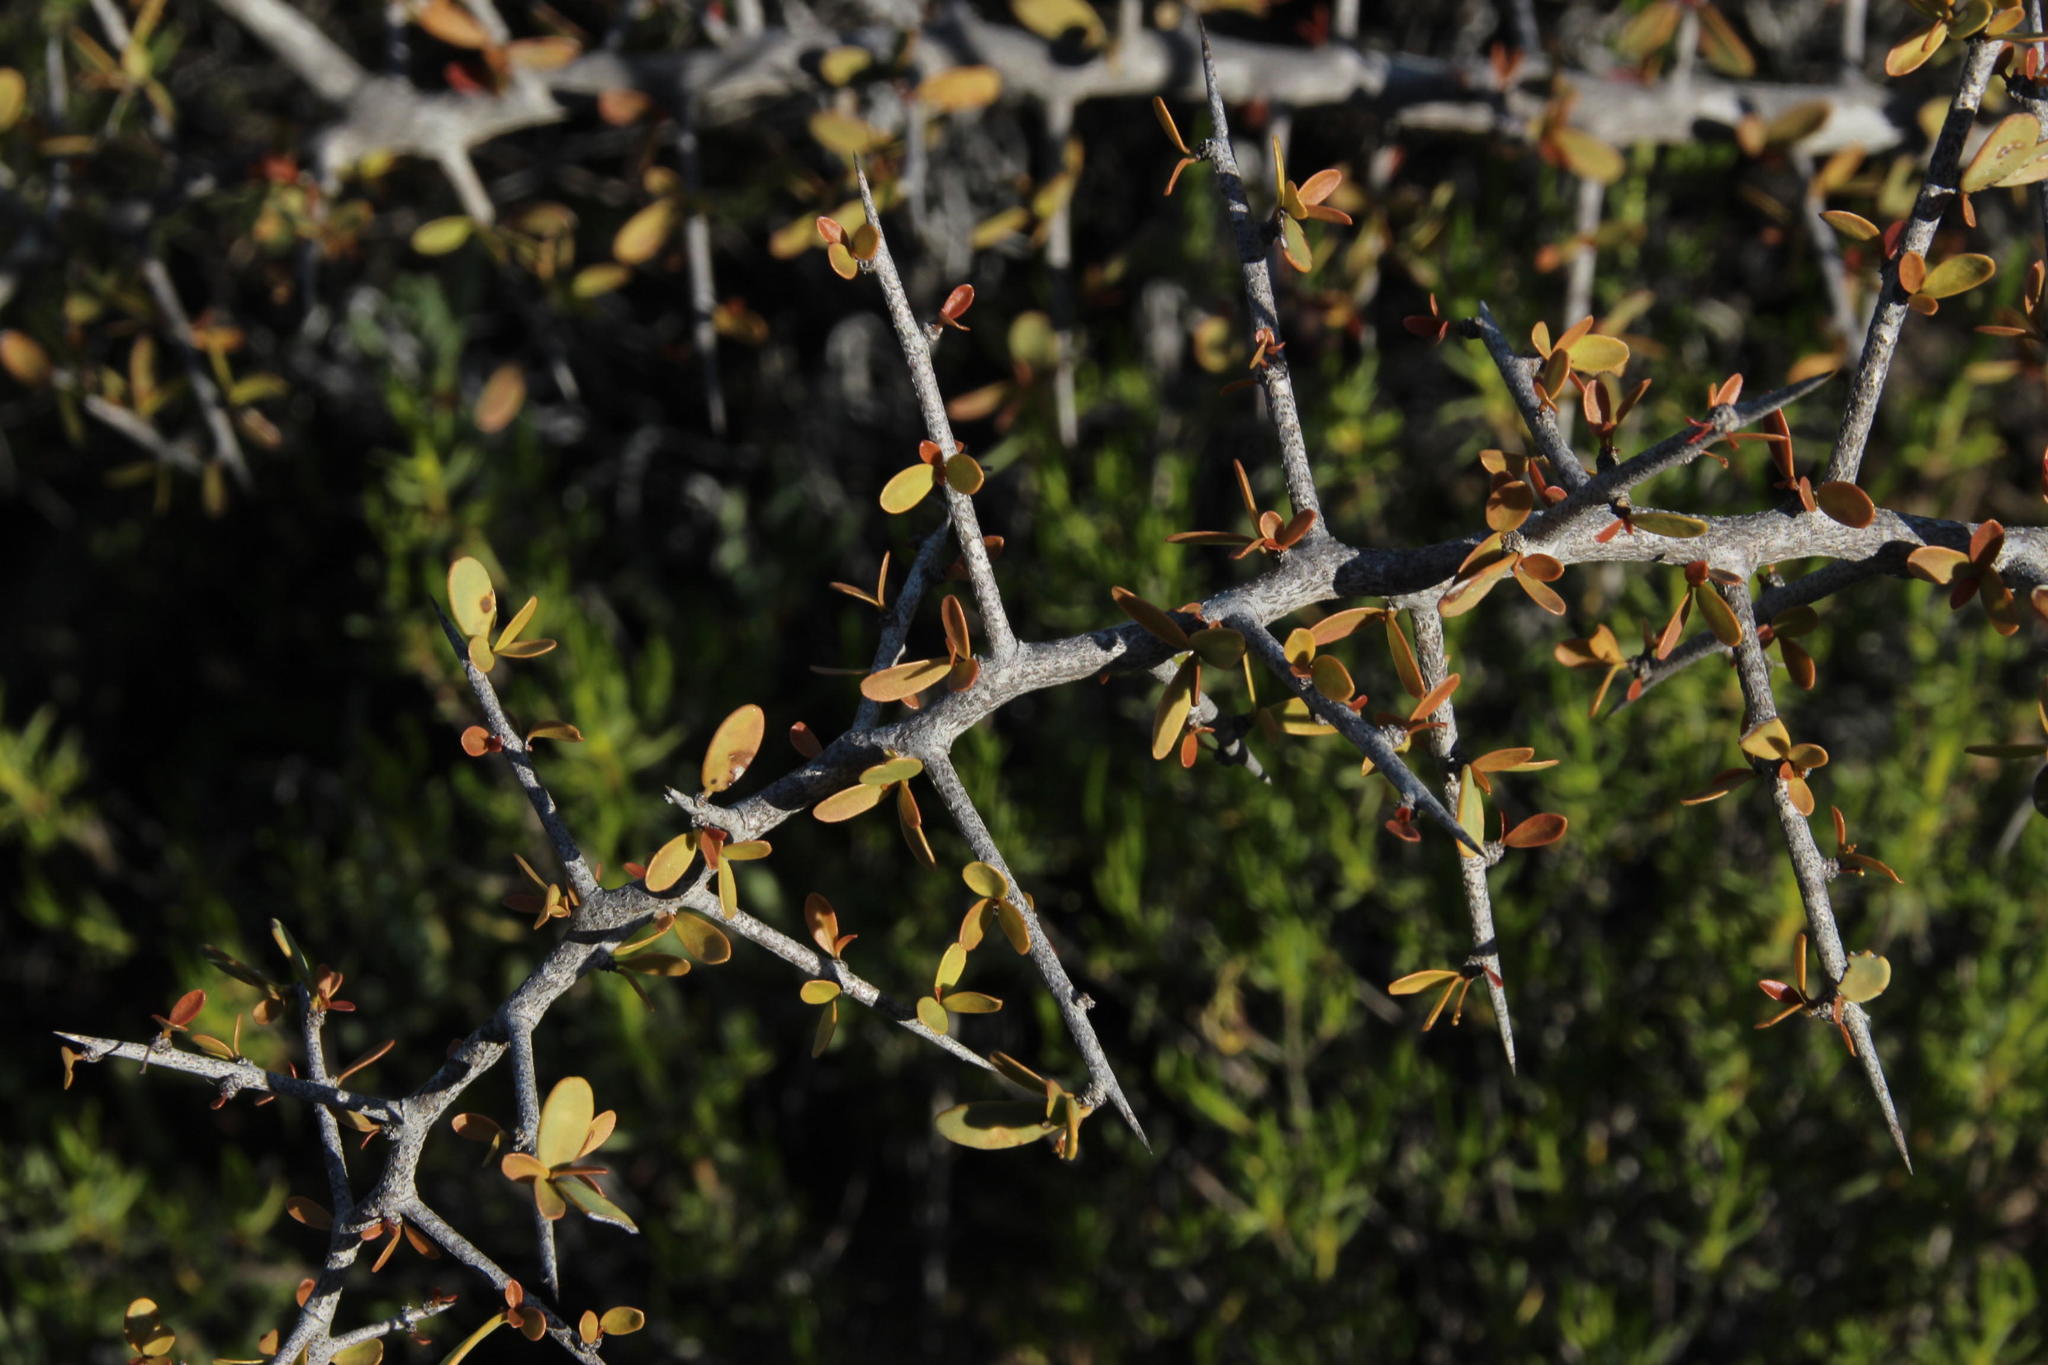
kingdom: Plantae
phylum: Tracheophyta
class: Magnoliopsida
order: Celastrales
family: Celastraceae
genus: Gloveria
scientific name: Gloveria integrifolia
